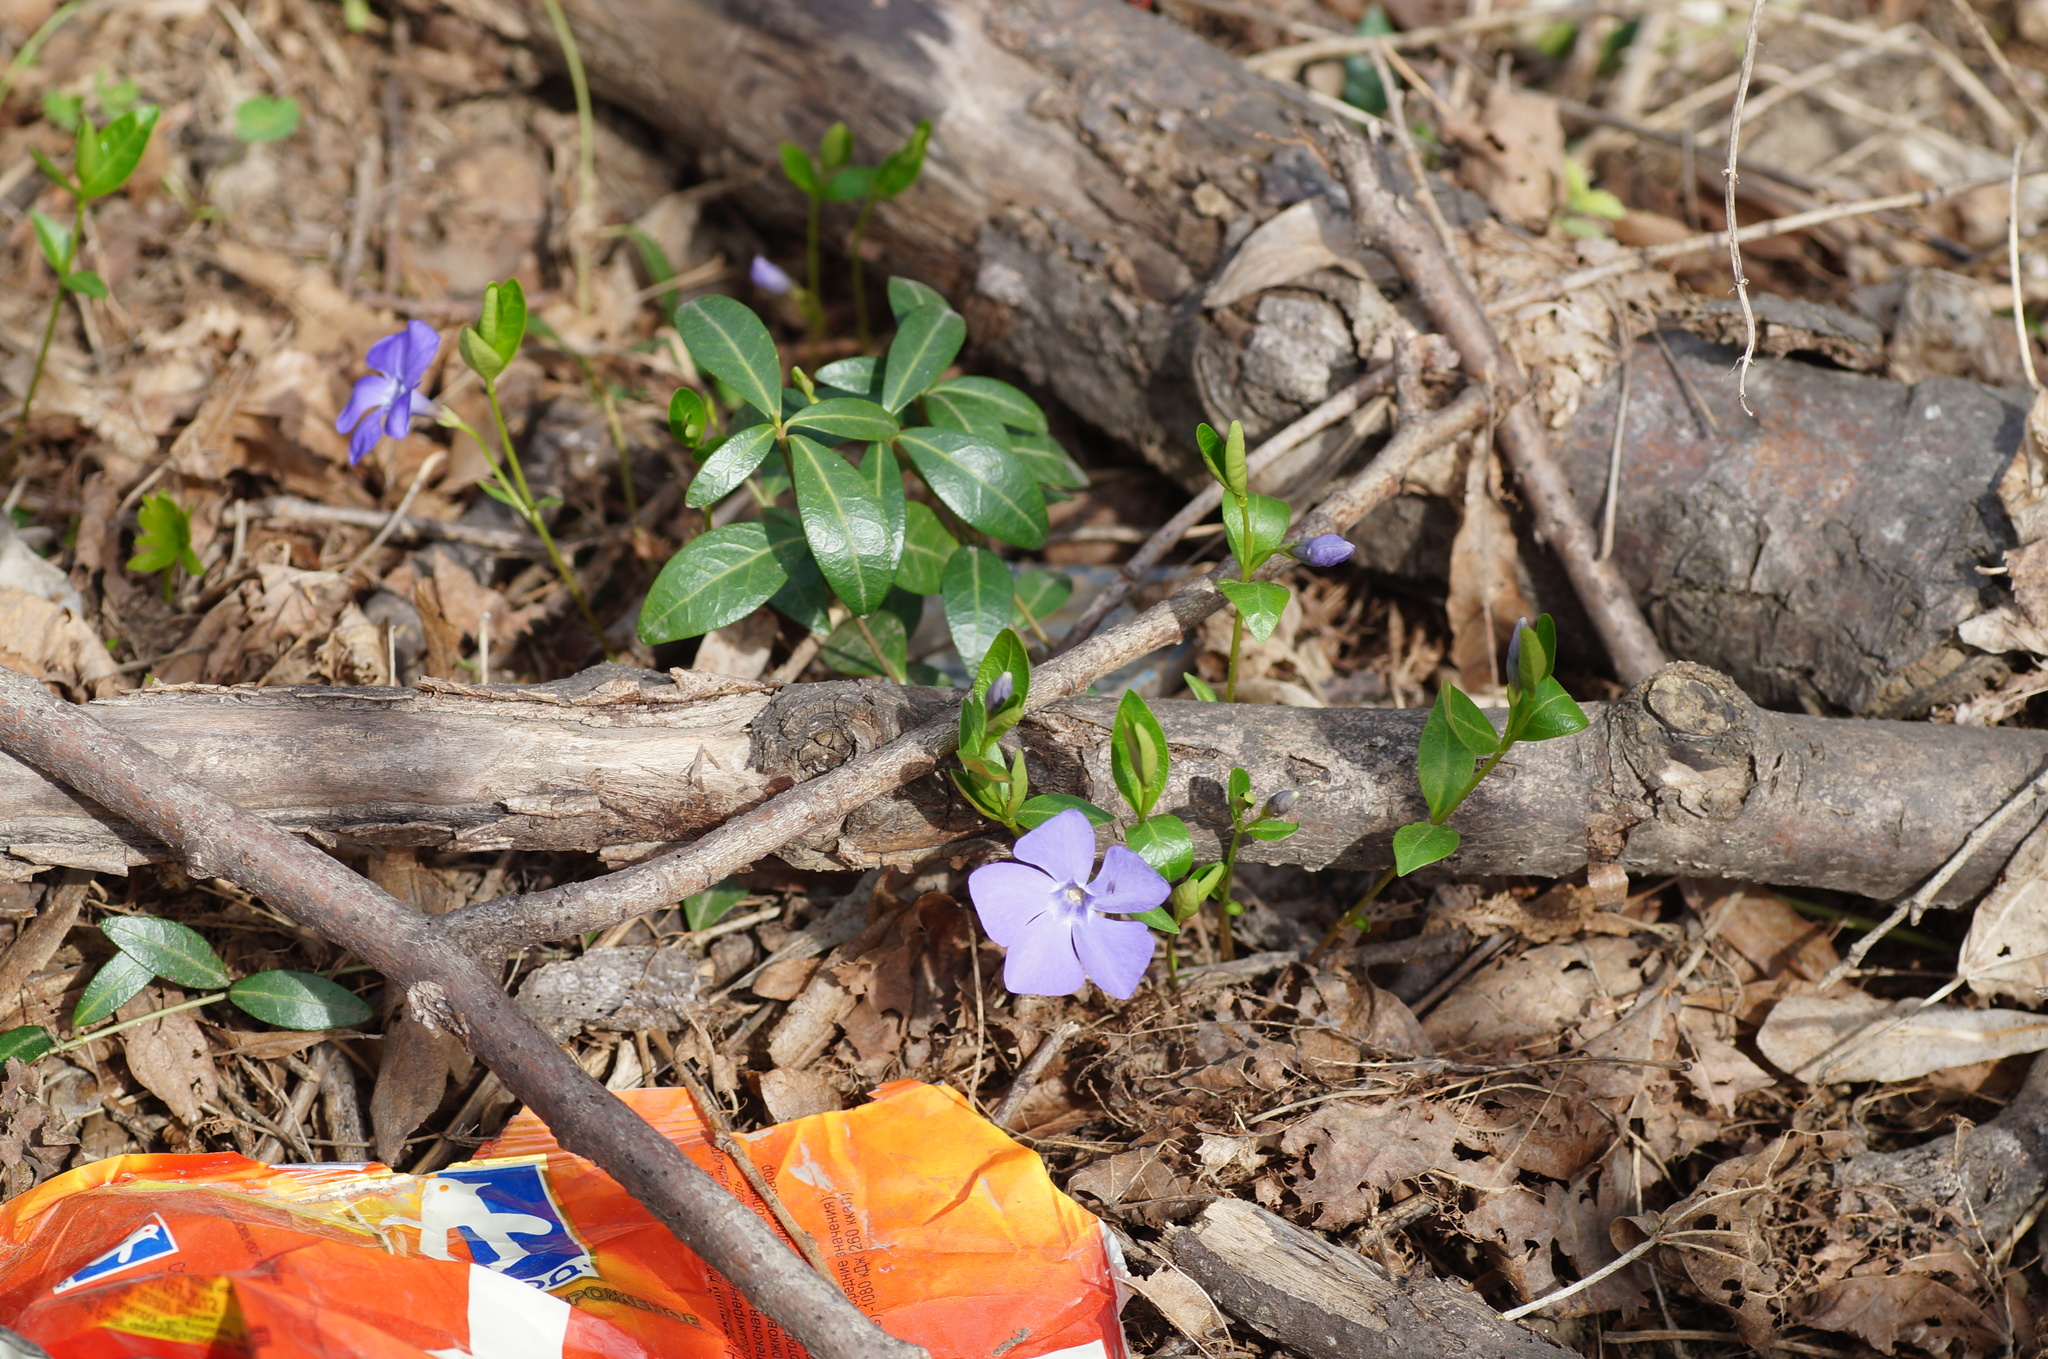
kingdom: Plantae
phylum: Tracheophyta
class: Magnoliopsida
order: Gentianales
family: Apocynaceae
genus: Vinca
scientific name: Vinca minor
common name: Lesser periwinkle
